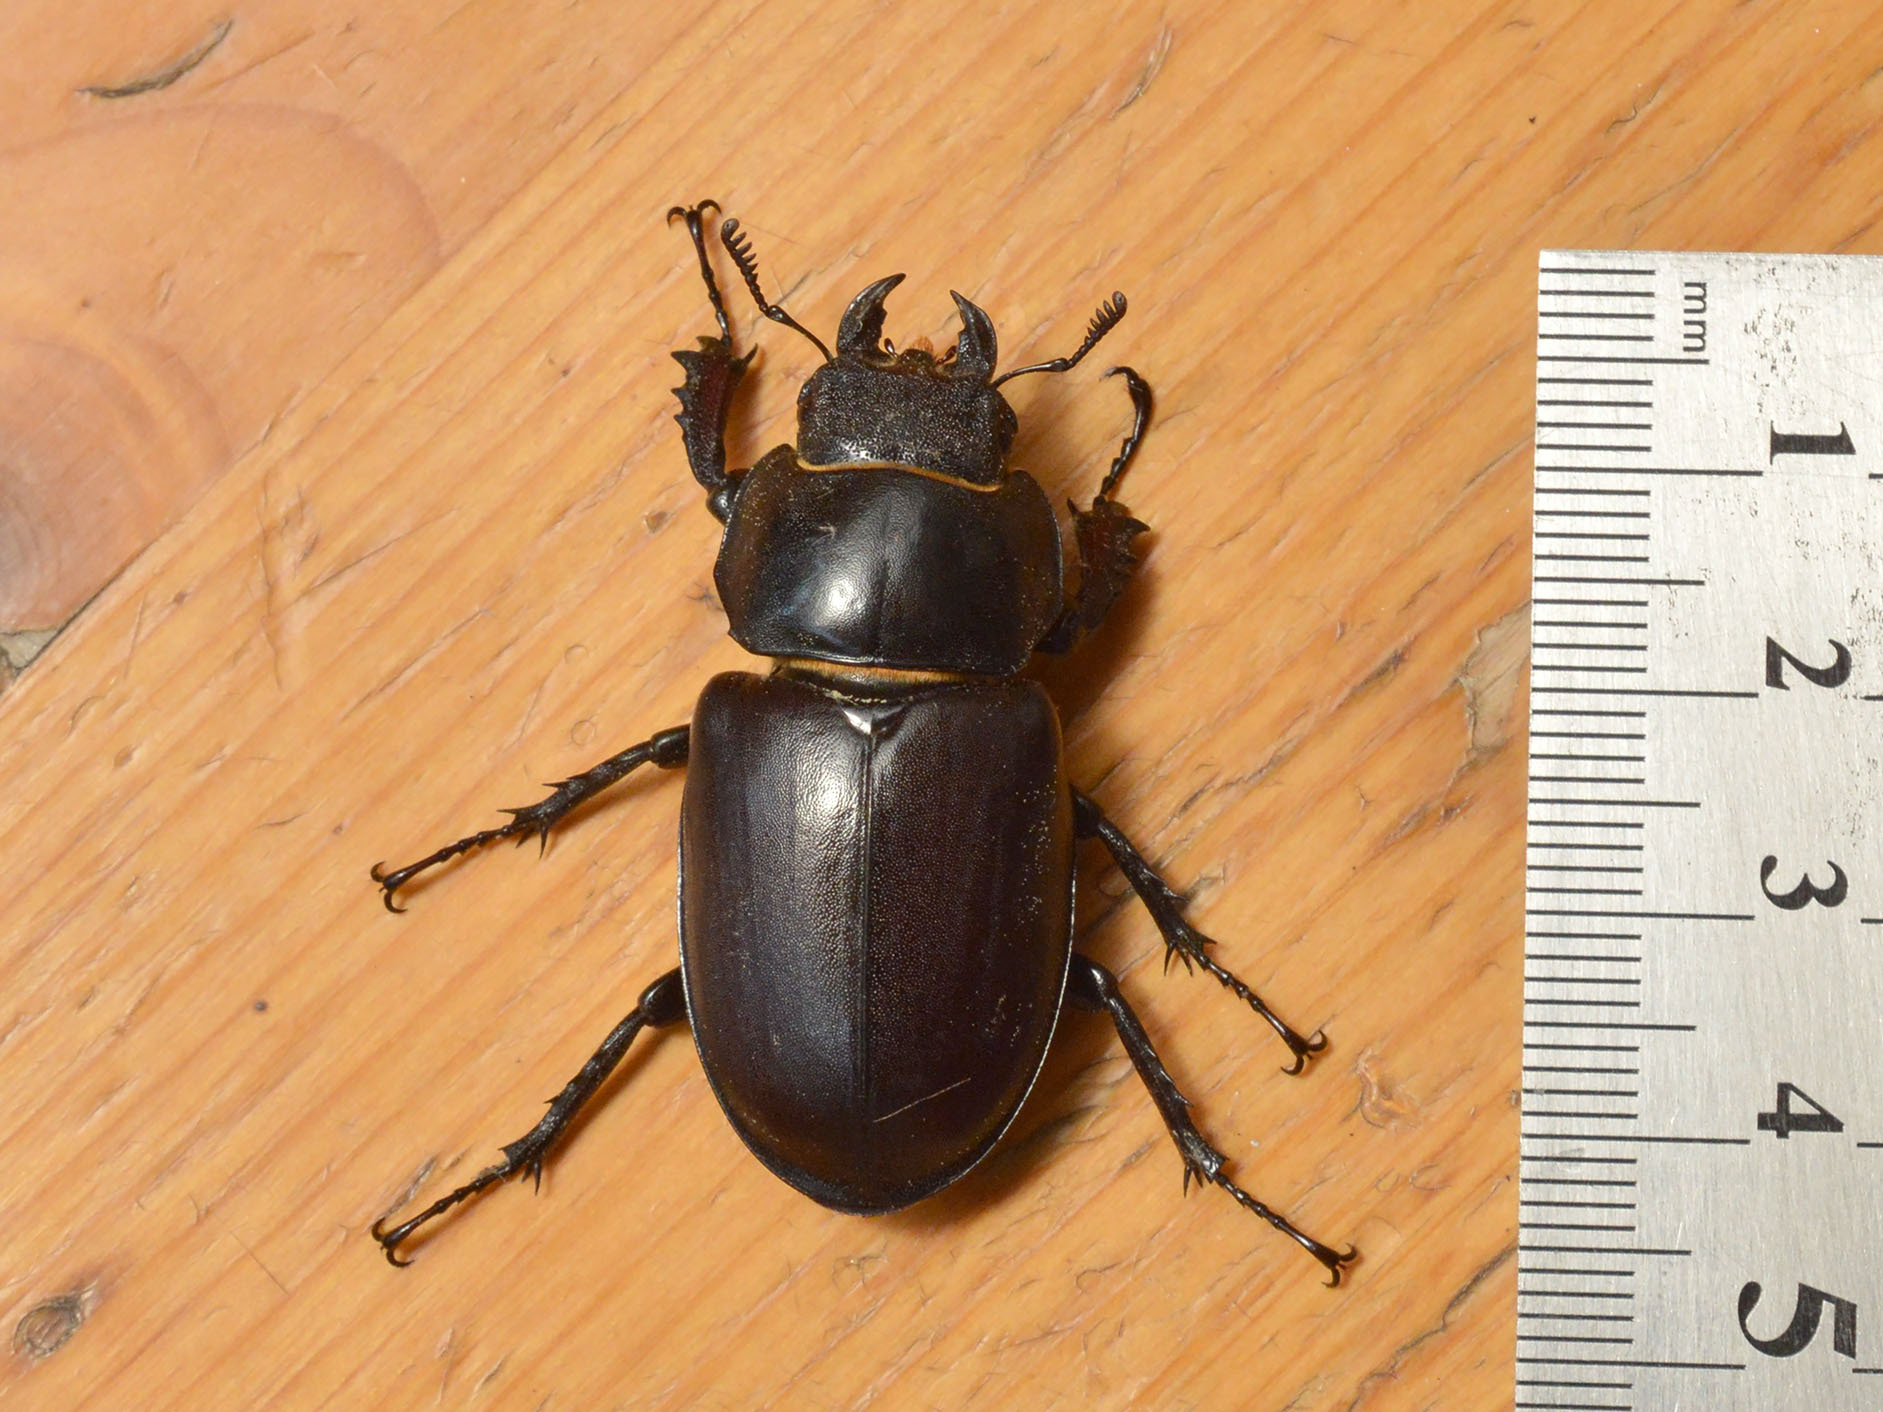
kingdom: Animalia
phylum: Arthropoda
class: Insecta
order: Coleoptera
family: Lucanidae
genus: Lucanus
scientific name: Lucanus cervus
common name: Stag beetle
